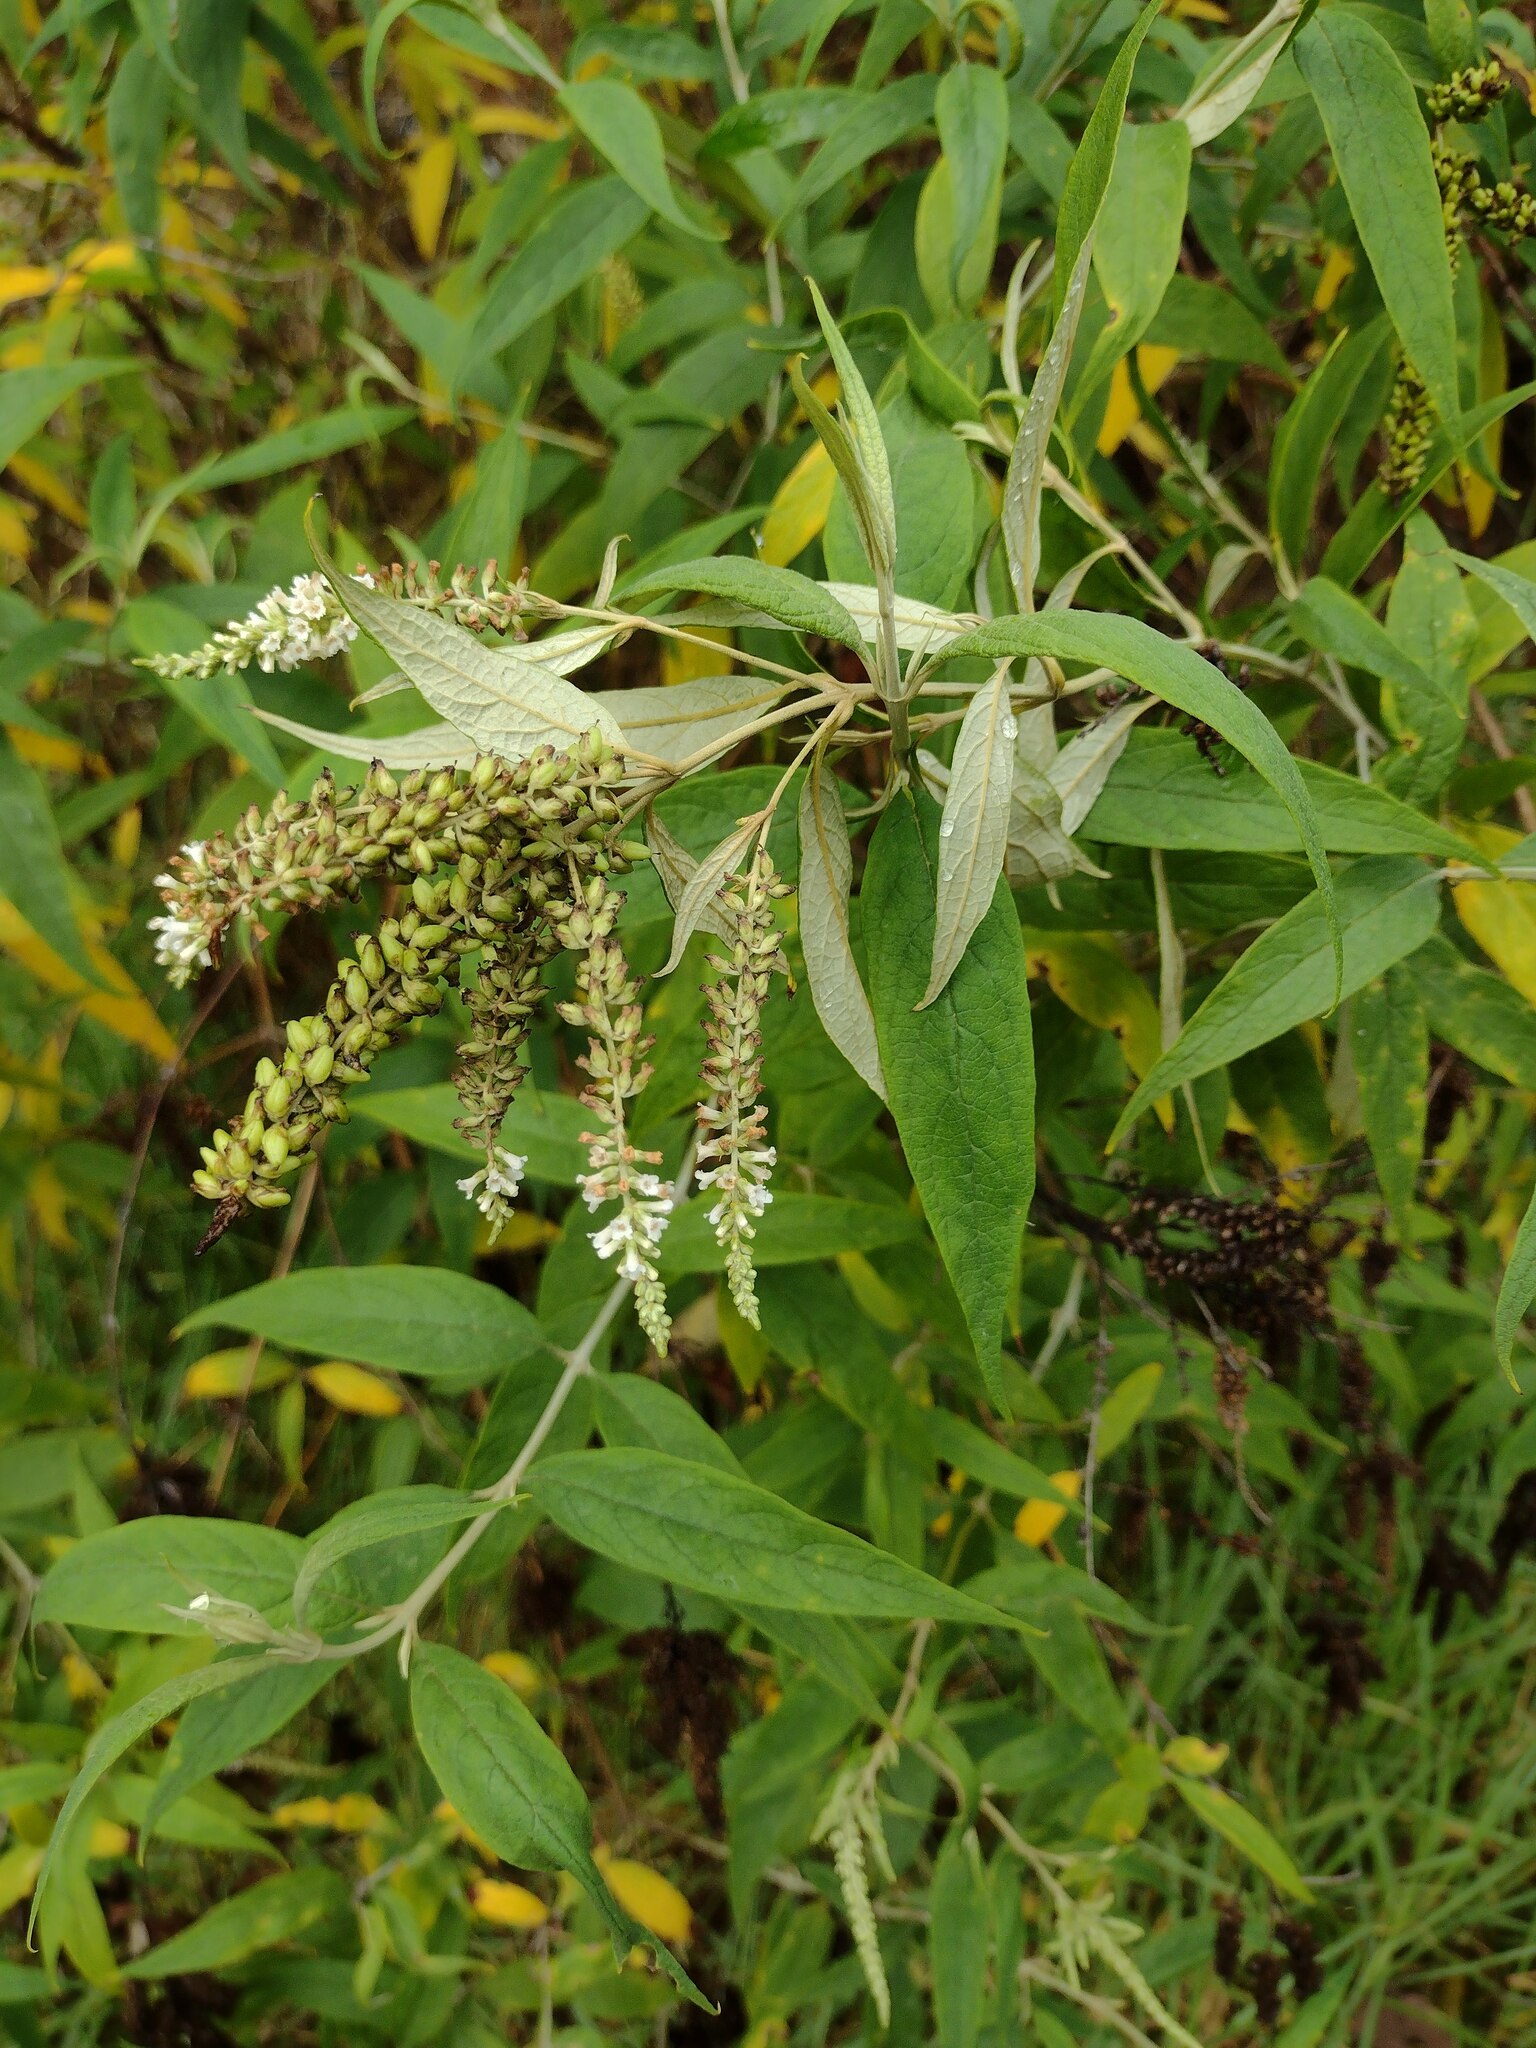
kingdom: Plantae
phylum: Tracheophyta
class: Magnoliopsida
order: Lamiales
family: Scrophulariaceae
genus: Buddleja
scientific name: Buddleja asiatica
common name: Dog tail
